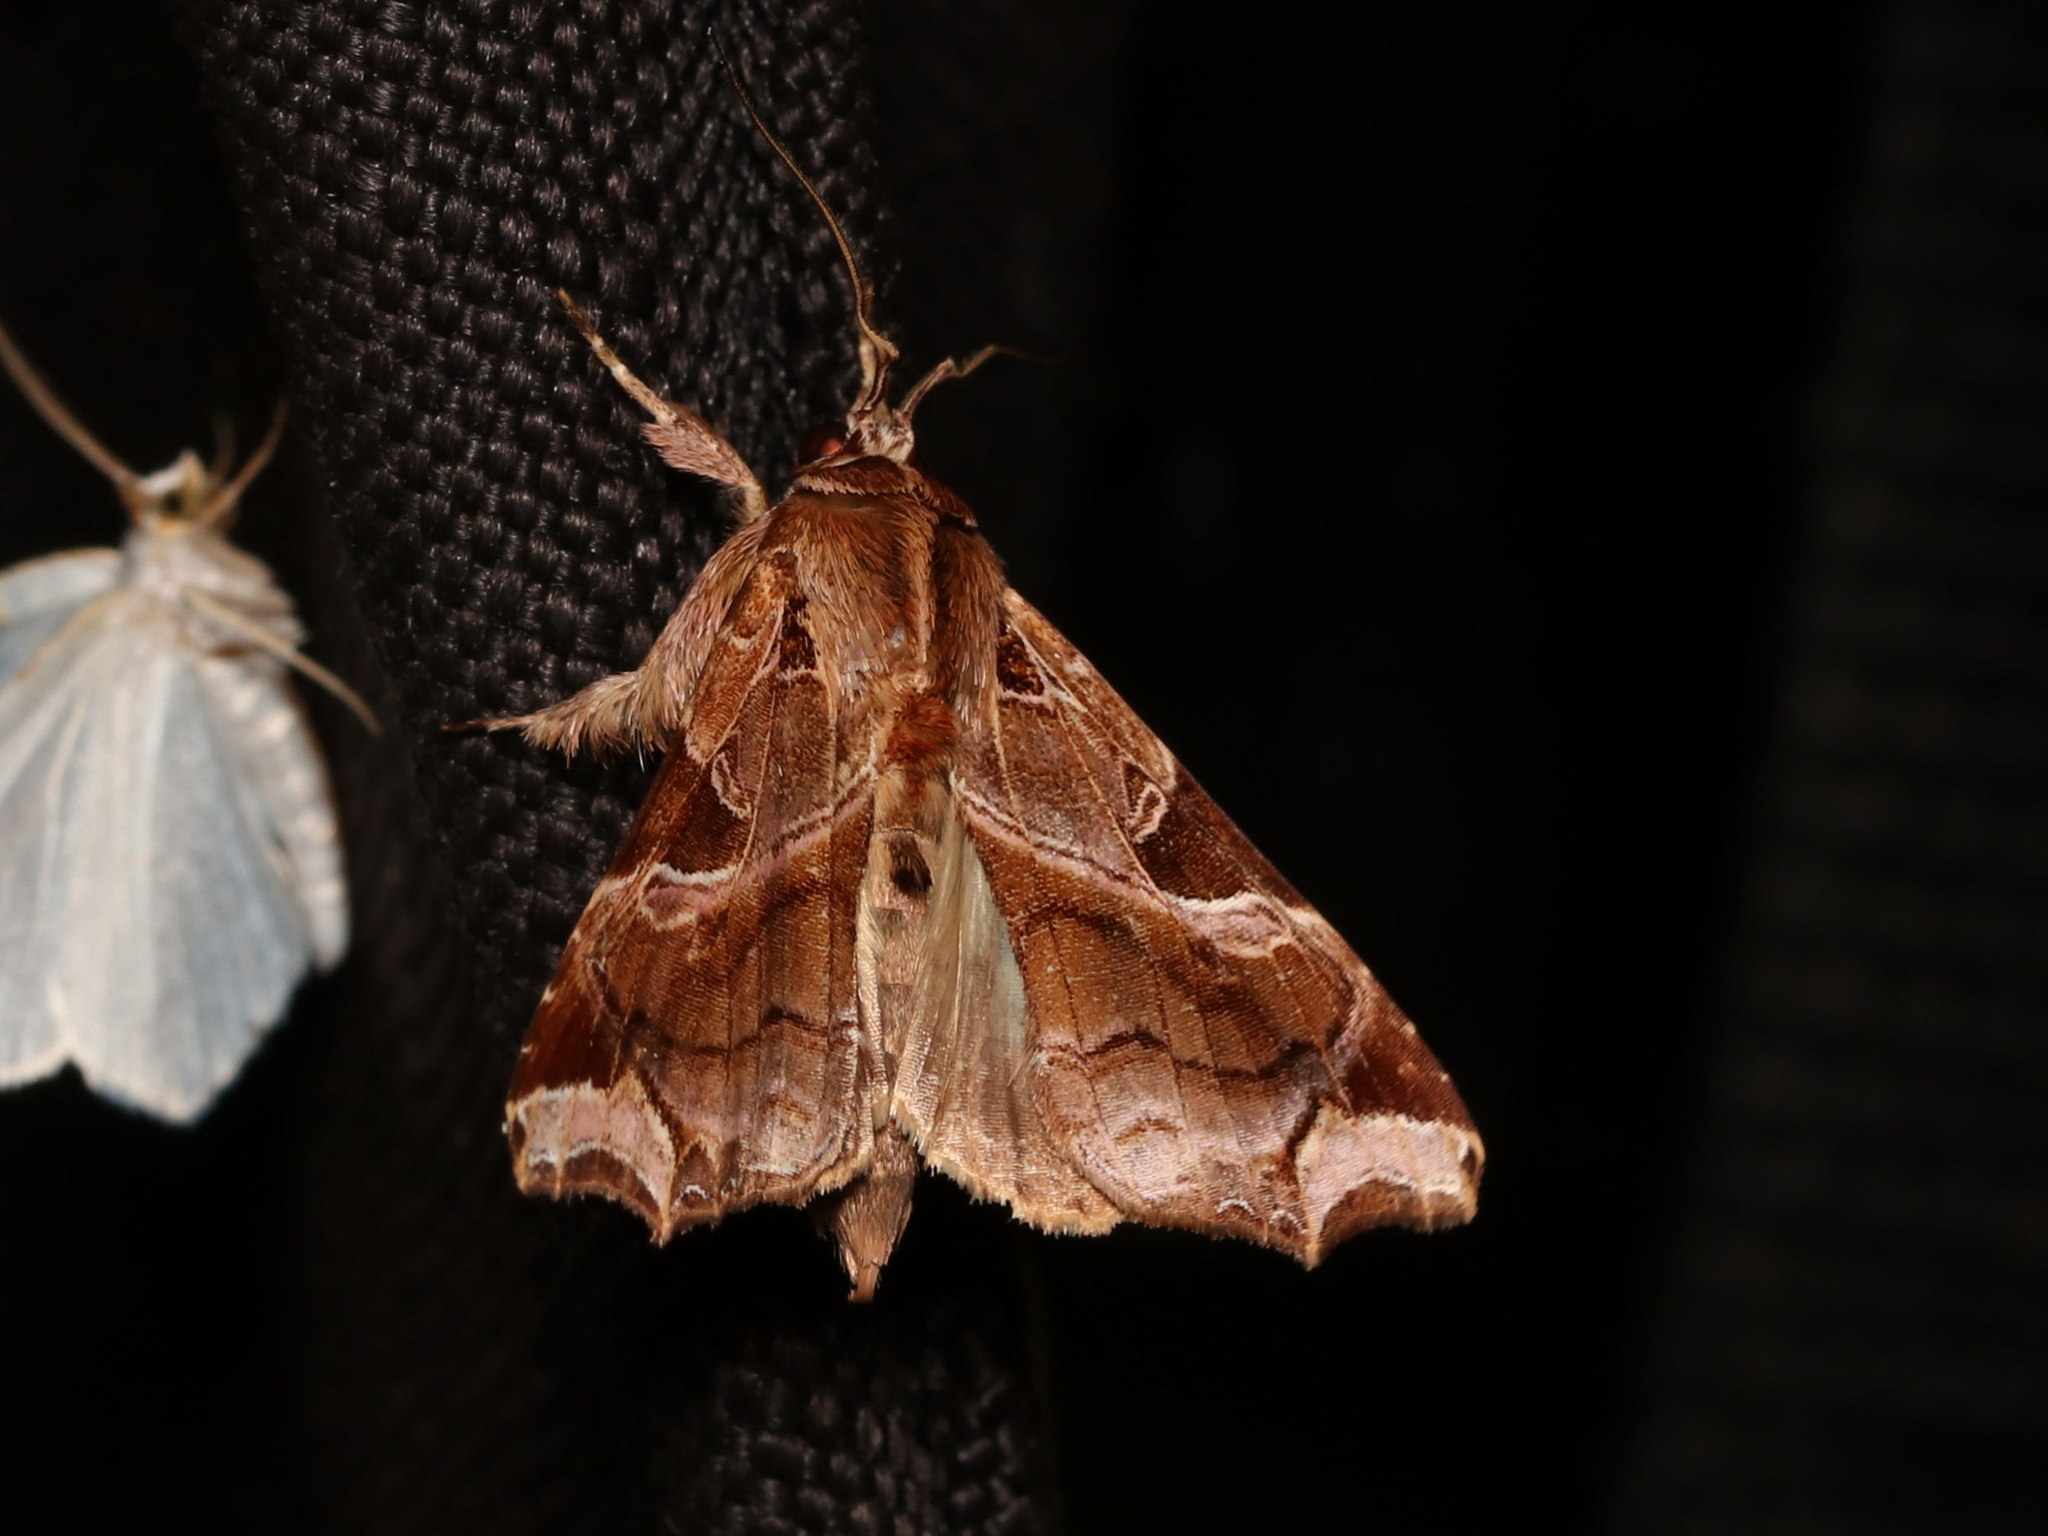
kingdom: Animalia
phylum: Arthropoda
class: Insecta
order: Lepidoptera
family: Noctuidae
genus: Callopistria
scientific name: Callopistria floridensis
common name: Florida fern moth
